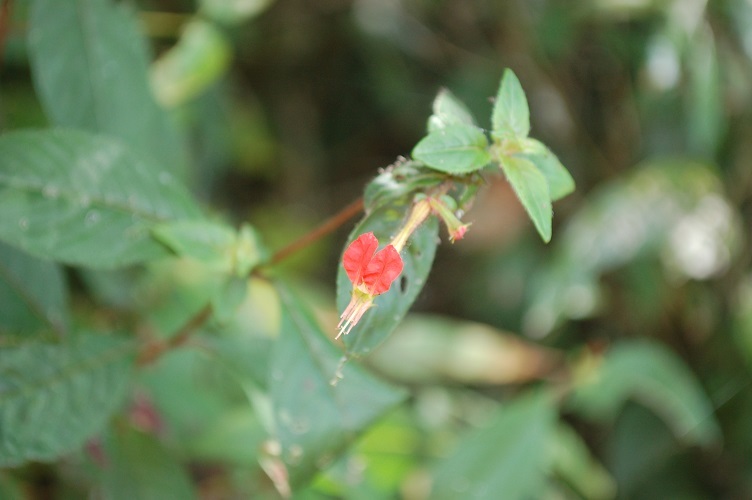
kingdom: Plantae
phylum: Tracheophyta
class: Magnoliopsida
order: Myrtales
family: Lythraceae
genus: Cuphea
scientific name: Cuphea intermedia
